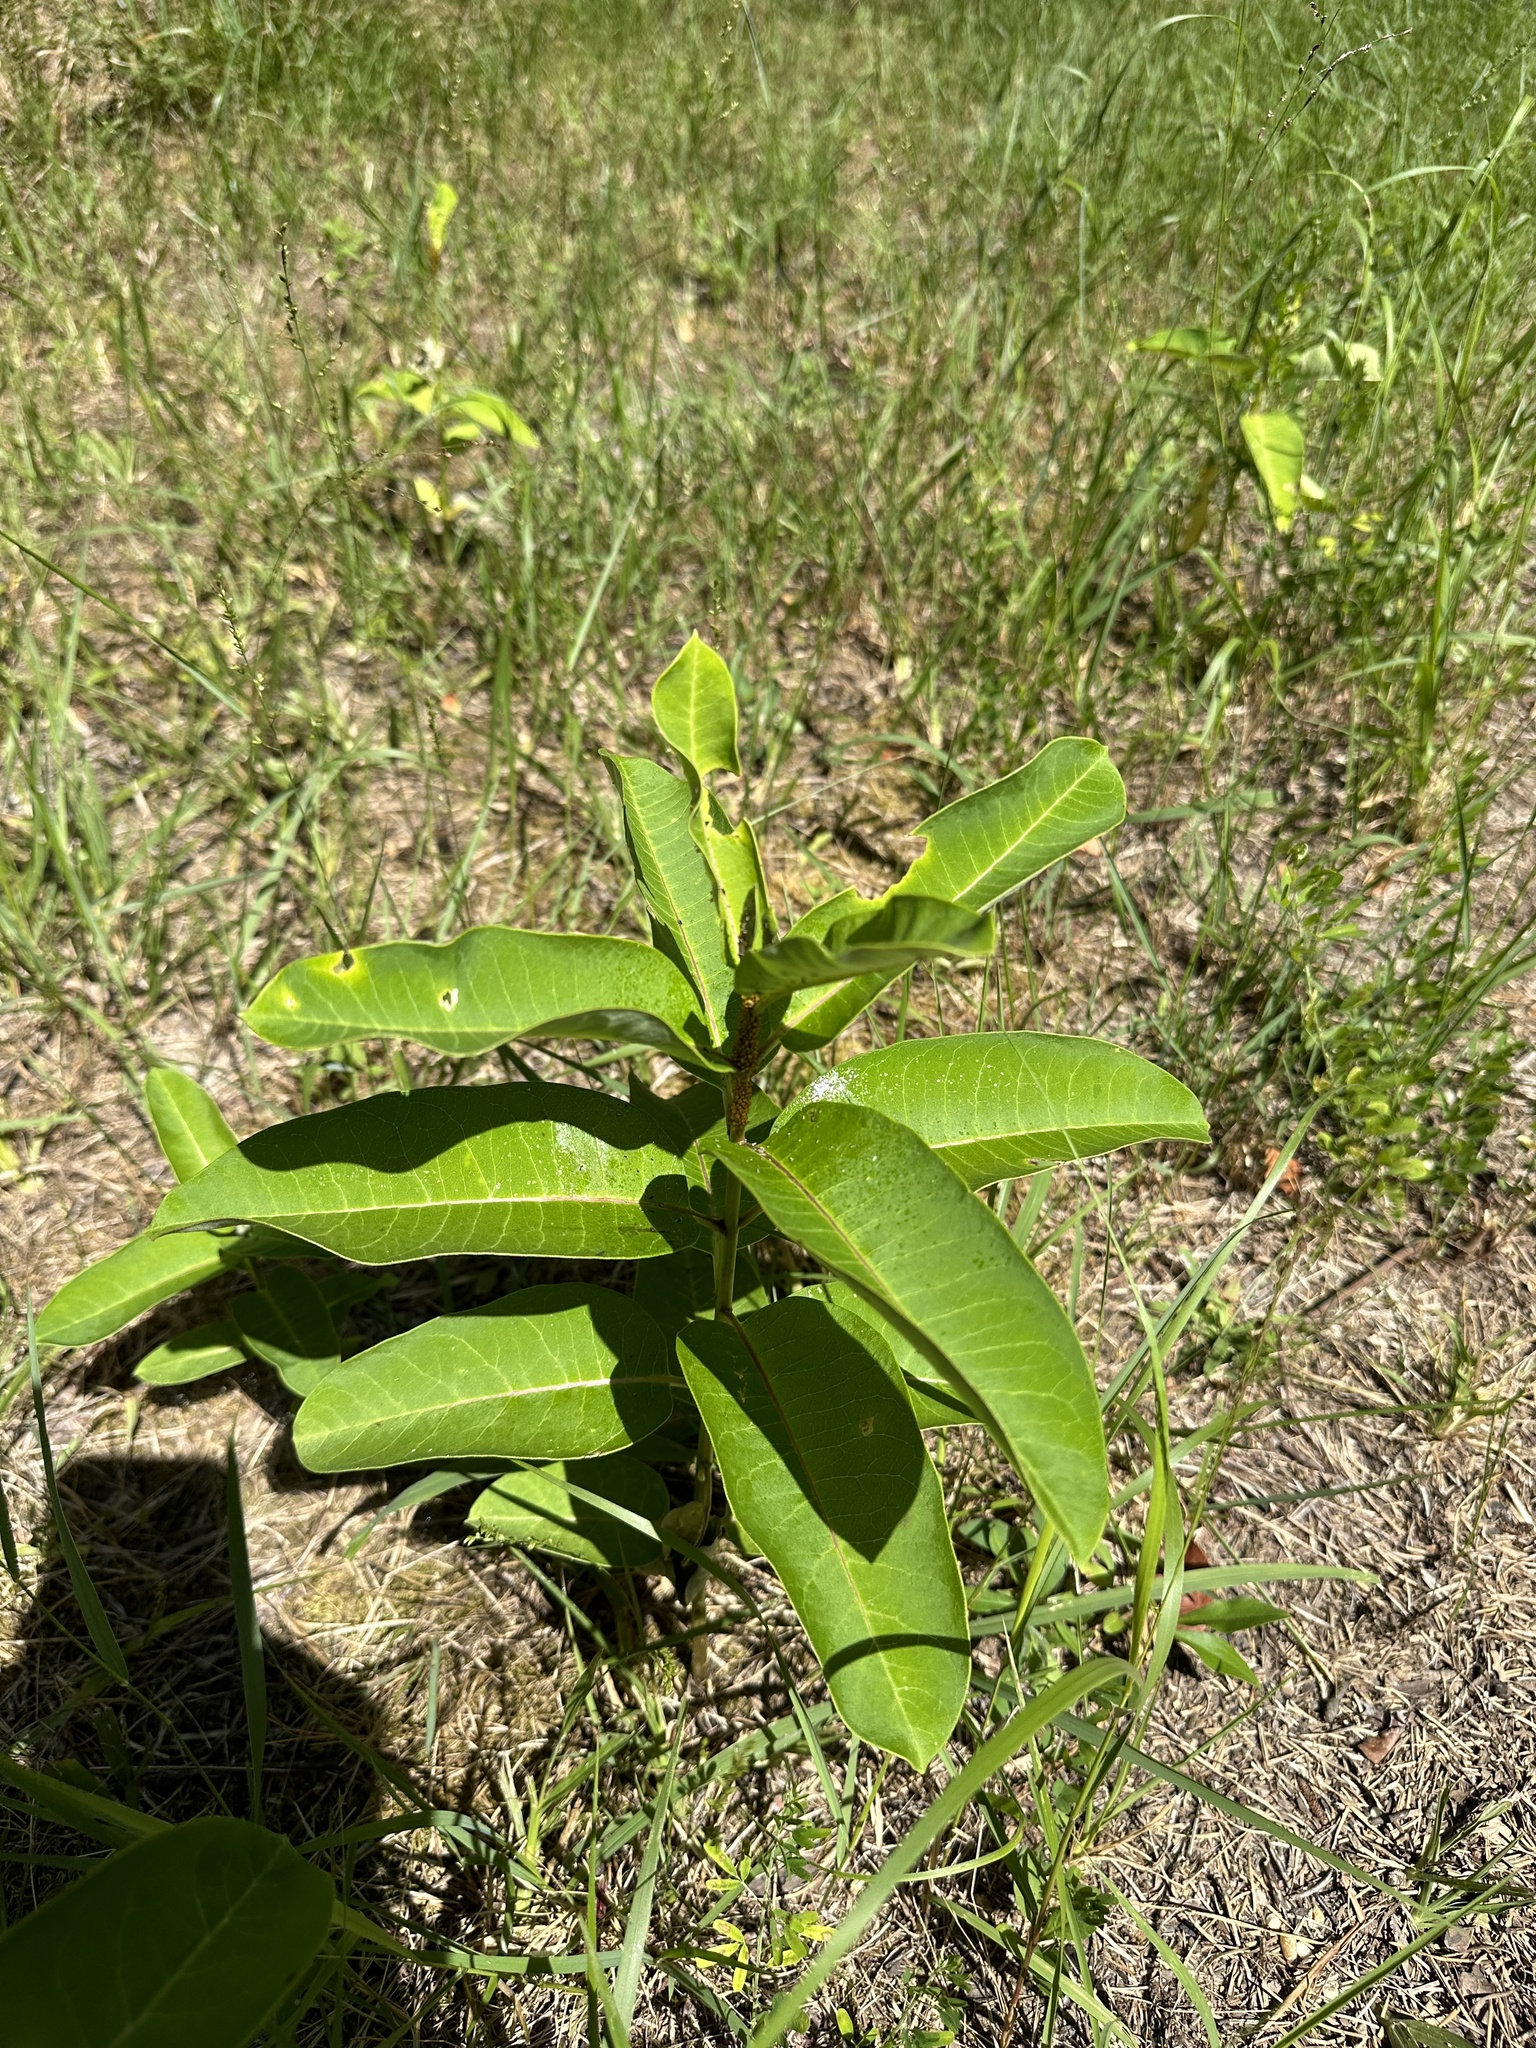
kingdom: Plantae
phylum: Tracheophyta
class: Magnoliopsida
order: Gentianales
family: Apocynaceae
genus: Asclepias
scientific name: Asclepias syriaca
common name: Common milkweed
